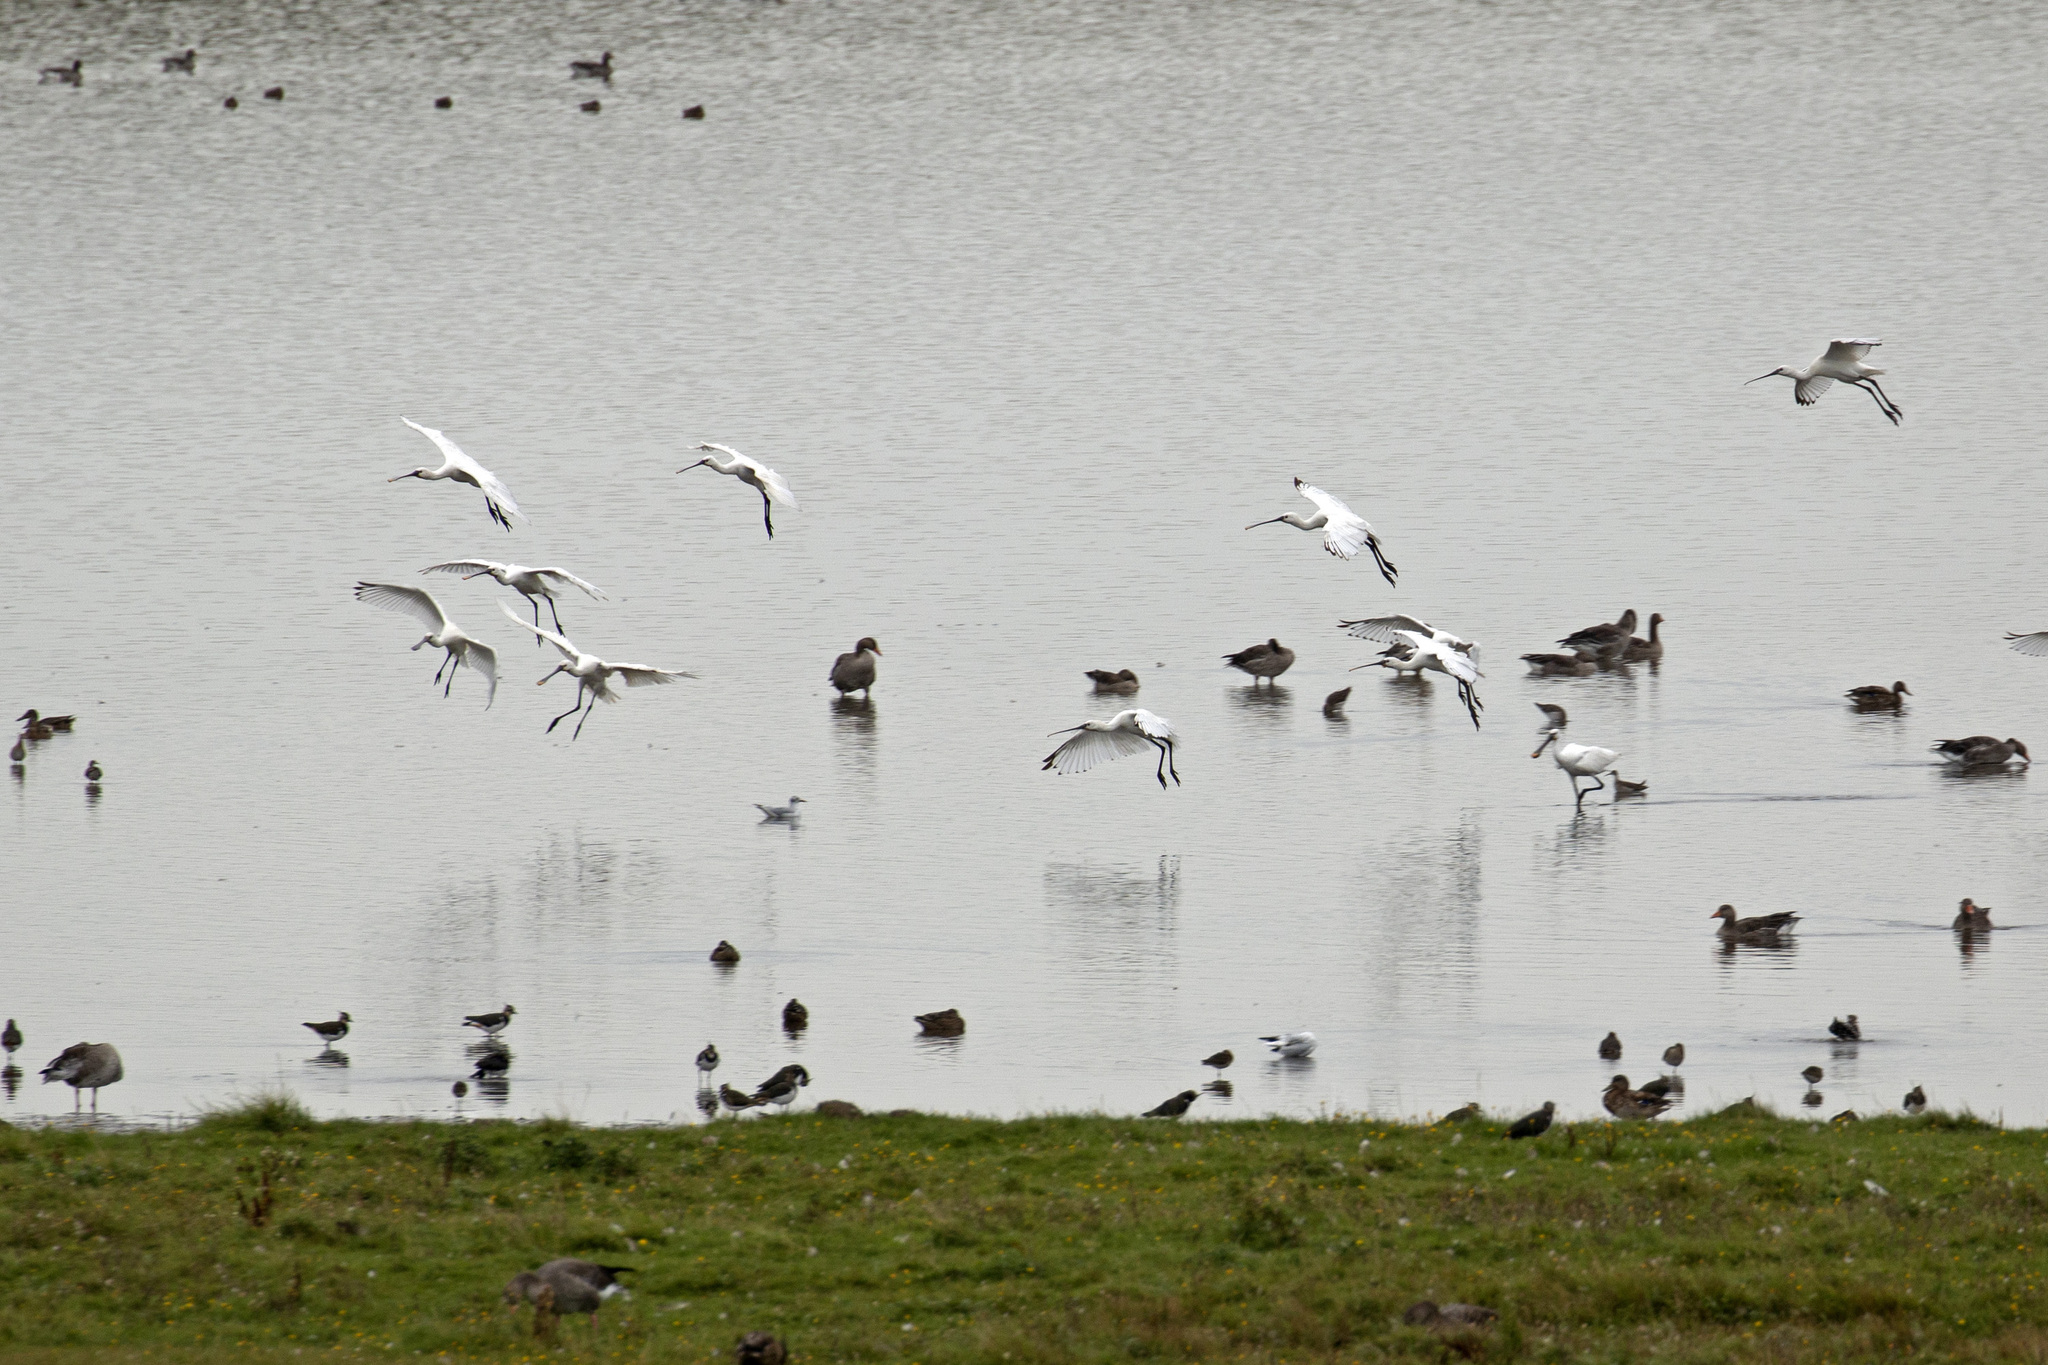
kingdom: Animalia
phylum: Chordata
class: Aves
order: Pelecaniformes
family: Threskiornithidae
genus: Platalea
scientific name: Platalea leucorodia
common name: Eurasian spoonbill
